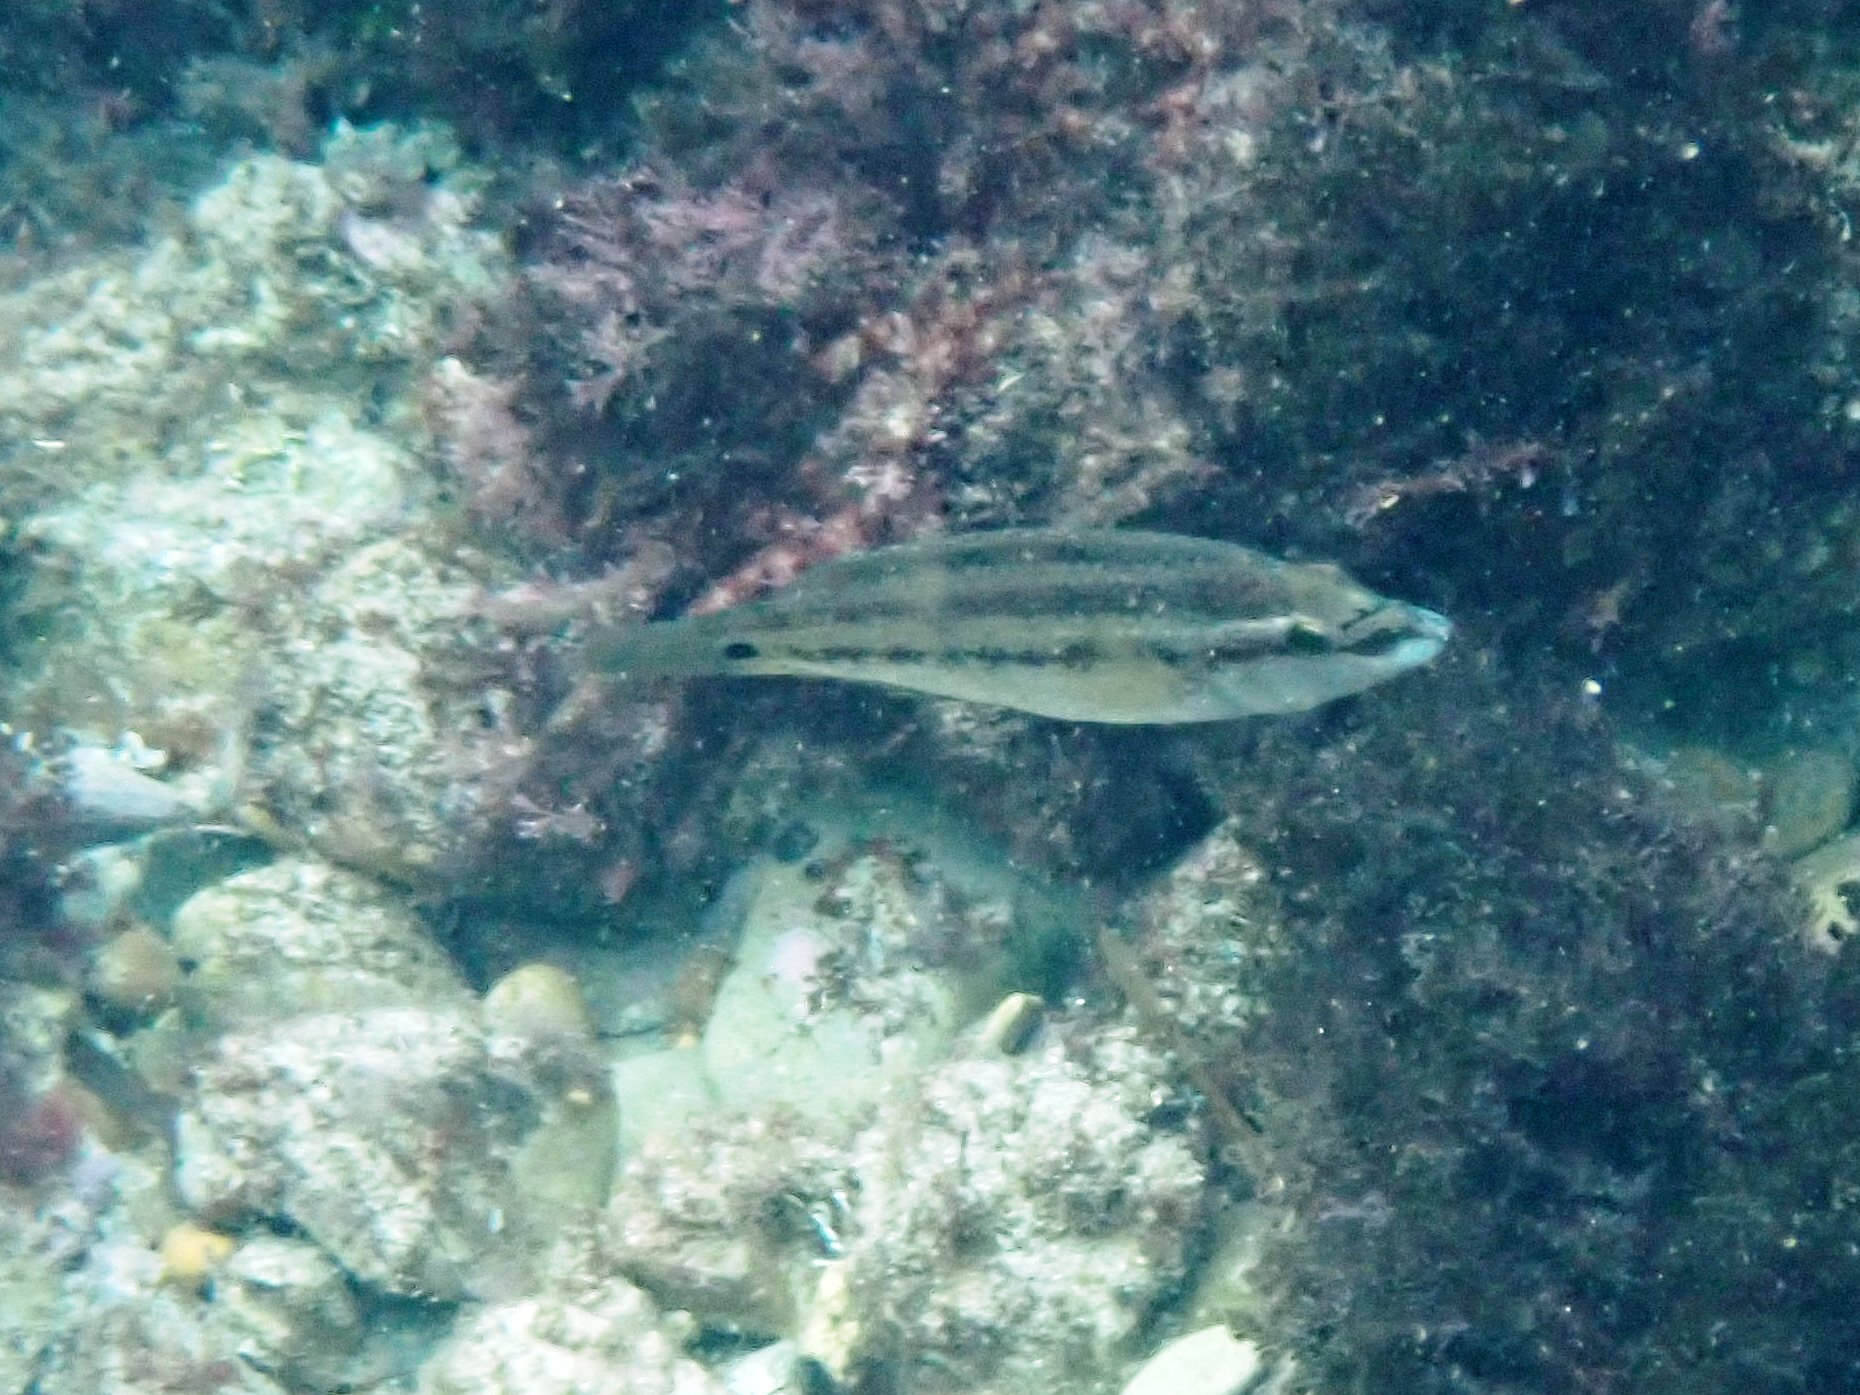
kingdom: Animalia
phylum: Chordata
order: Perciformes
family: Labridae
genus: Symphodus
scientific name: Symphodus tinca
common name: Peacock wrasse
